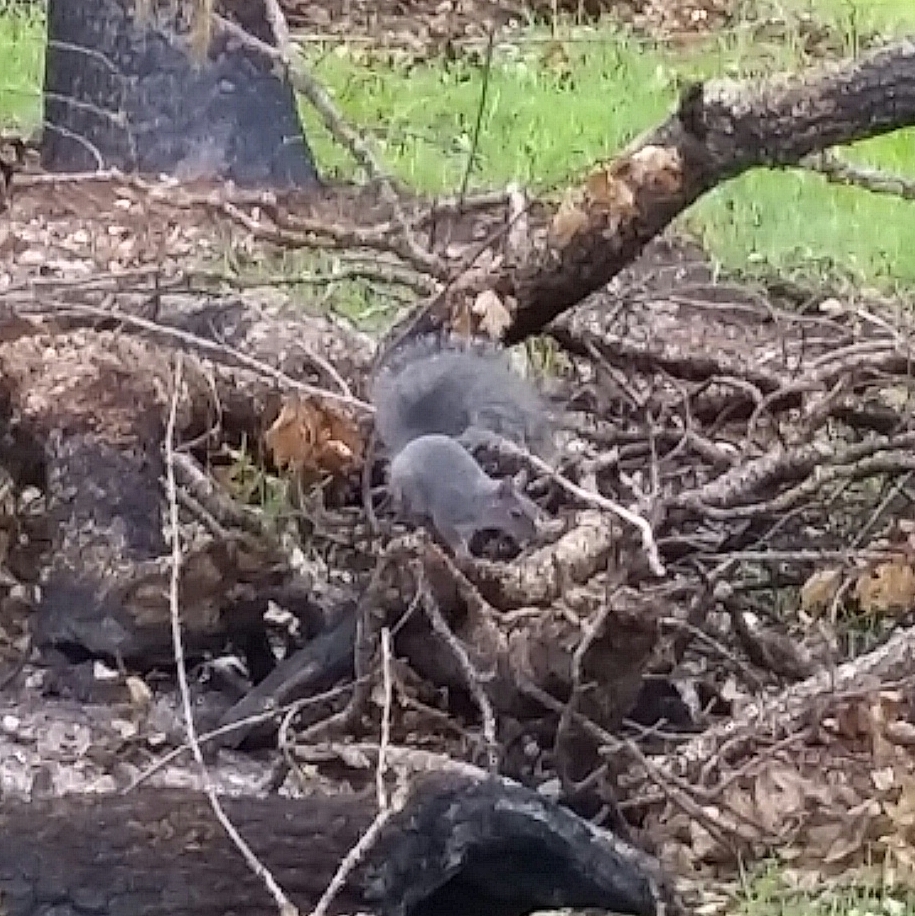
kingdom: Animalia
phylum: Chordata
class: Mammalia
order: Rodentia
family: Sciuridae
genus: Sciurus
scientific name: Sciurus griseus
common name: Western gray squirrel
